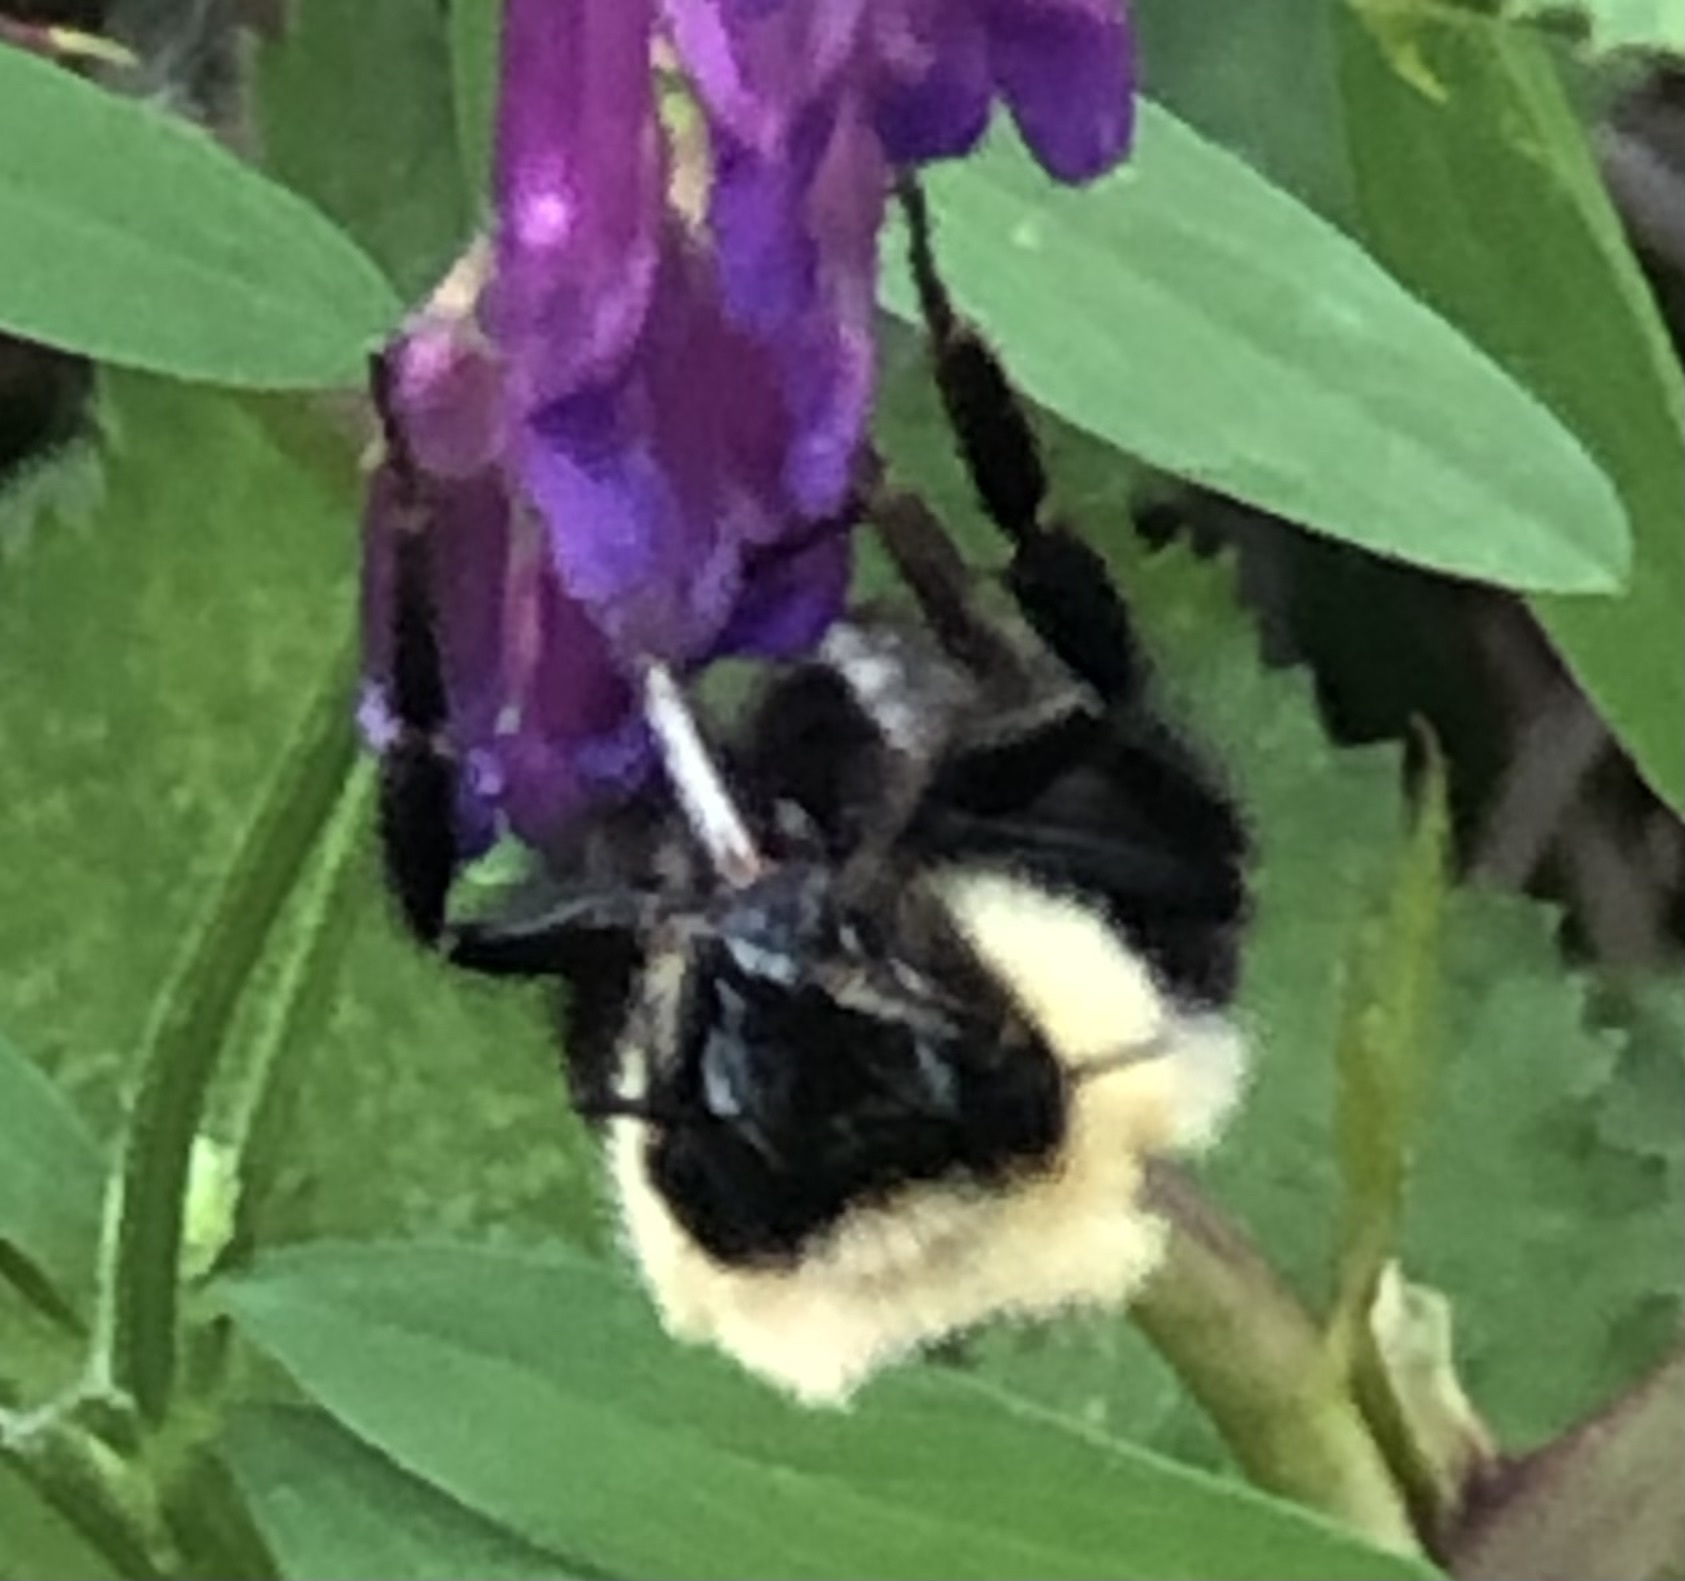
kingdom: Animalia
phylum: Arthropoda
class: Insecta
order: Hymenoptera
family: Apidae
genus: Bombus
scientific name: Bombus bimaculatus
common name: Two-spotted bumble bee
